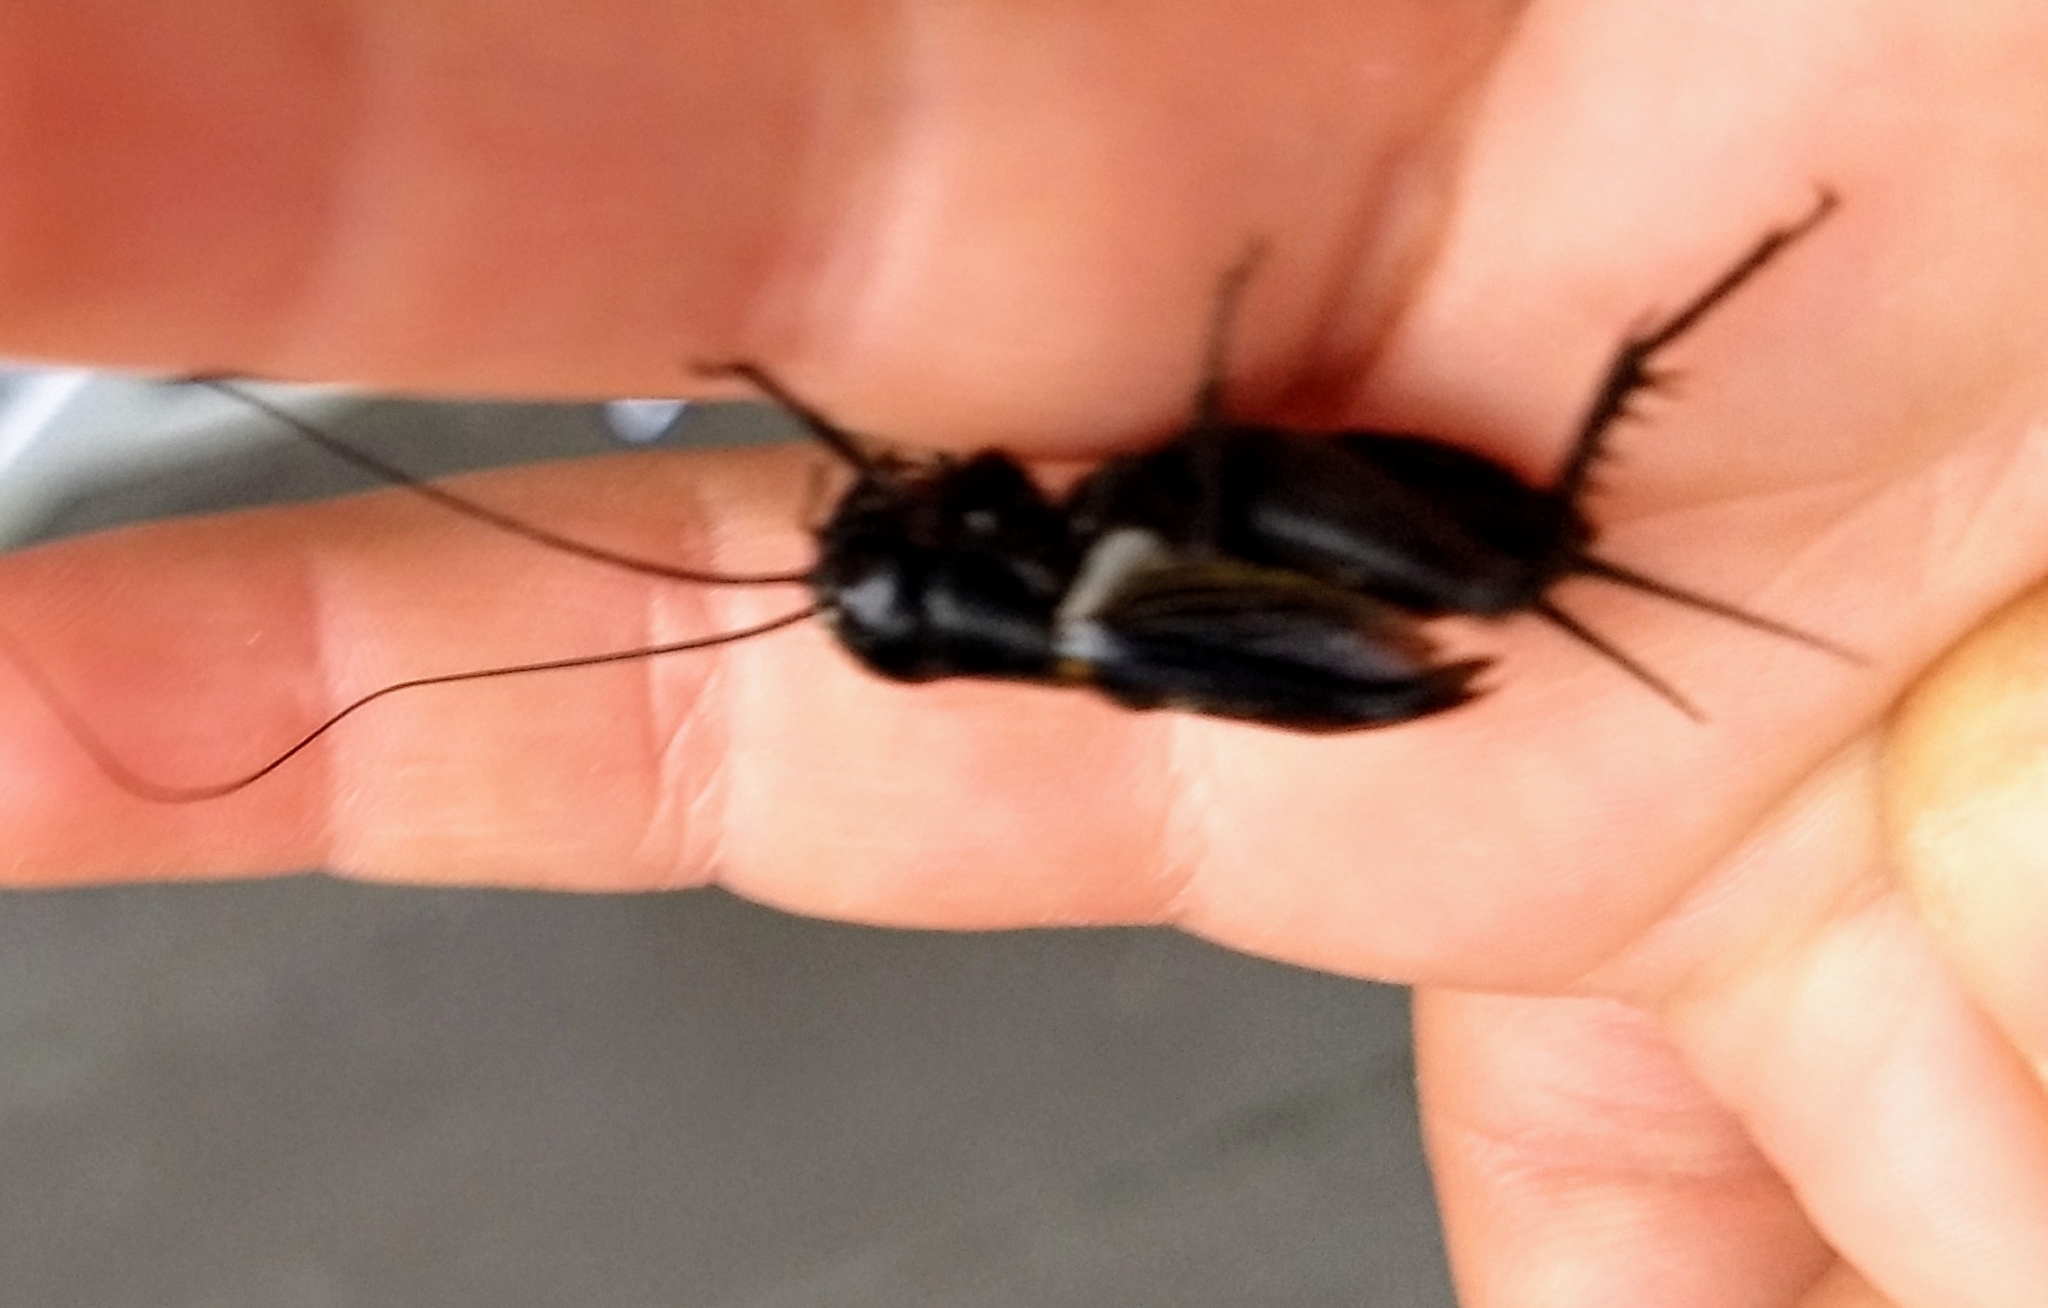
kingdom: Animalia
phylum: Arthropoda
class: Insecta
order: Orthoptera
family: Gryllidae
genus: Gryllus
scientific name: Gryllus pennsylvanicus
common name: Fall field cricket
